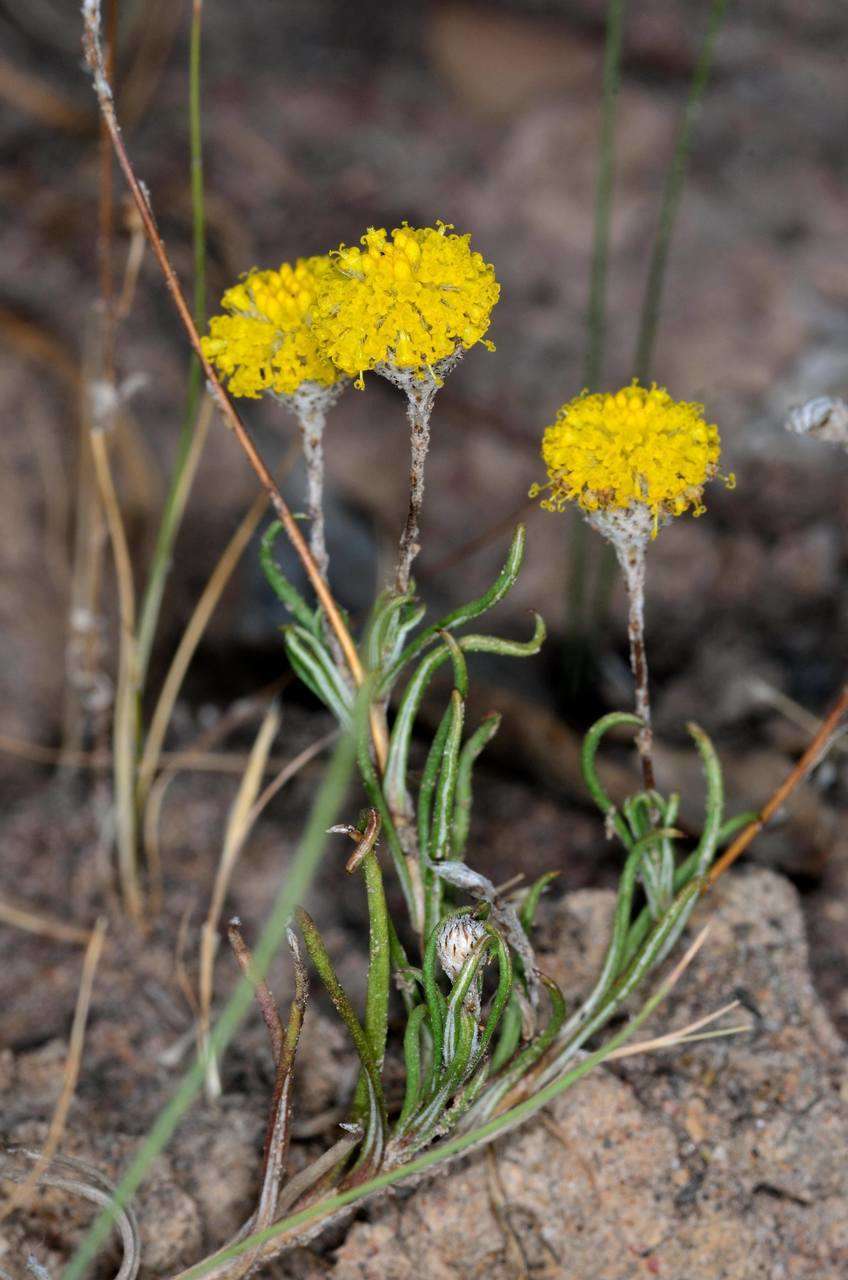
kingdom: Plantae
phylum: Tracheophyta
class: Magnoliopsida
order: Asterales
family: Asteraceae
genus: Leptorhynchos
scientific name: Leptorhynchos squamatus
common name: Scaly-buttons
